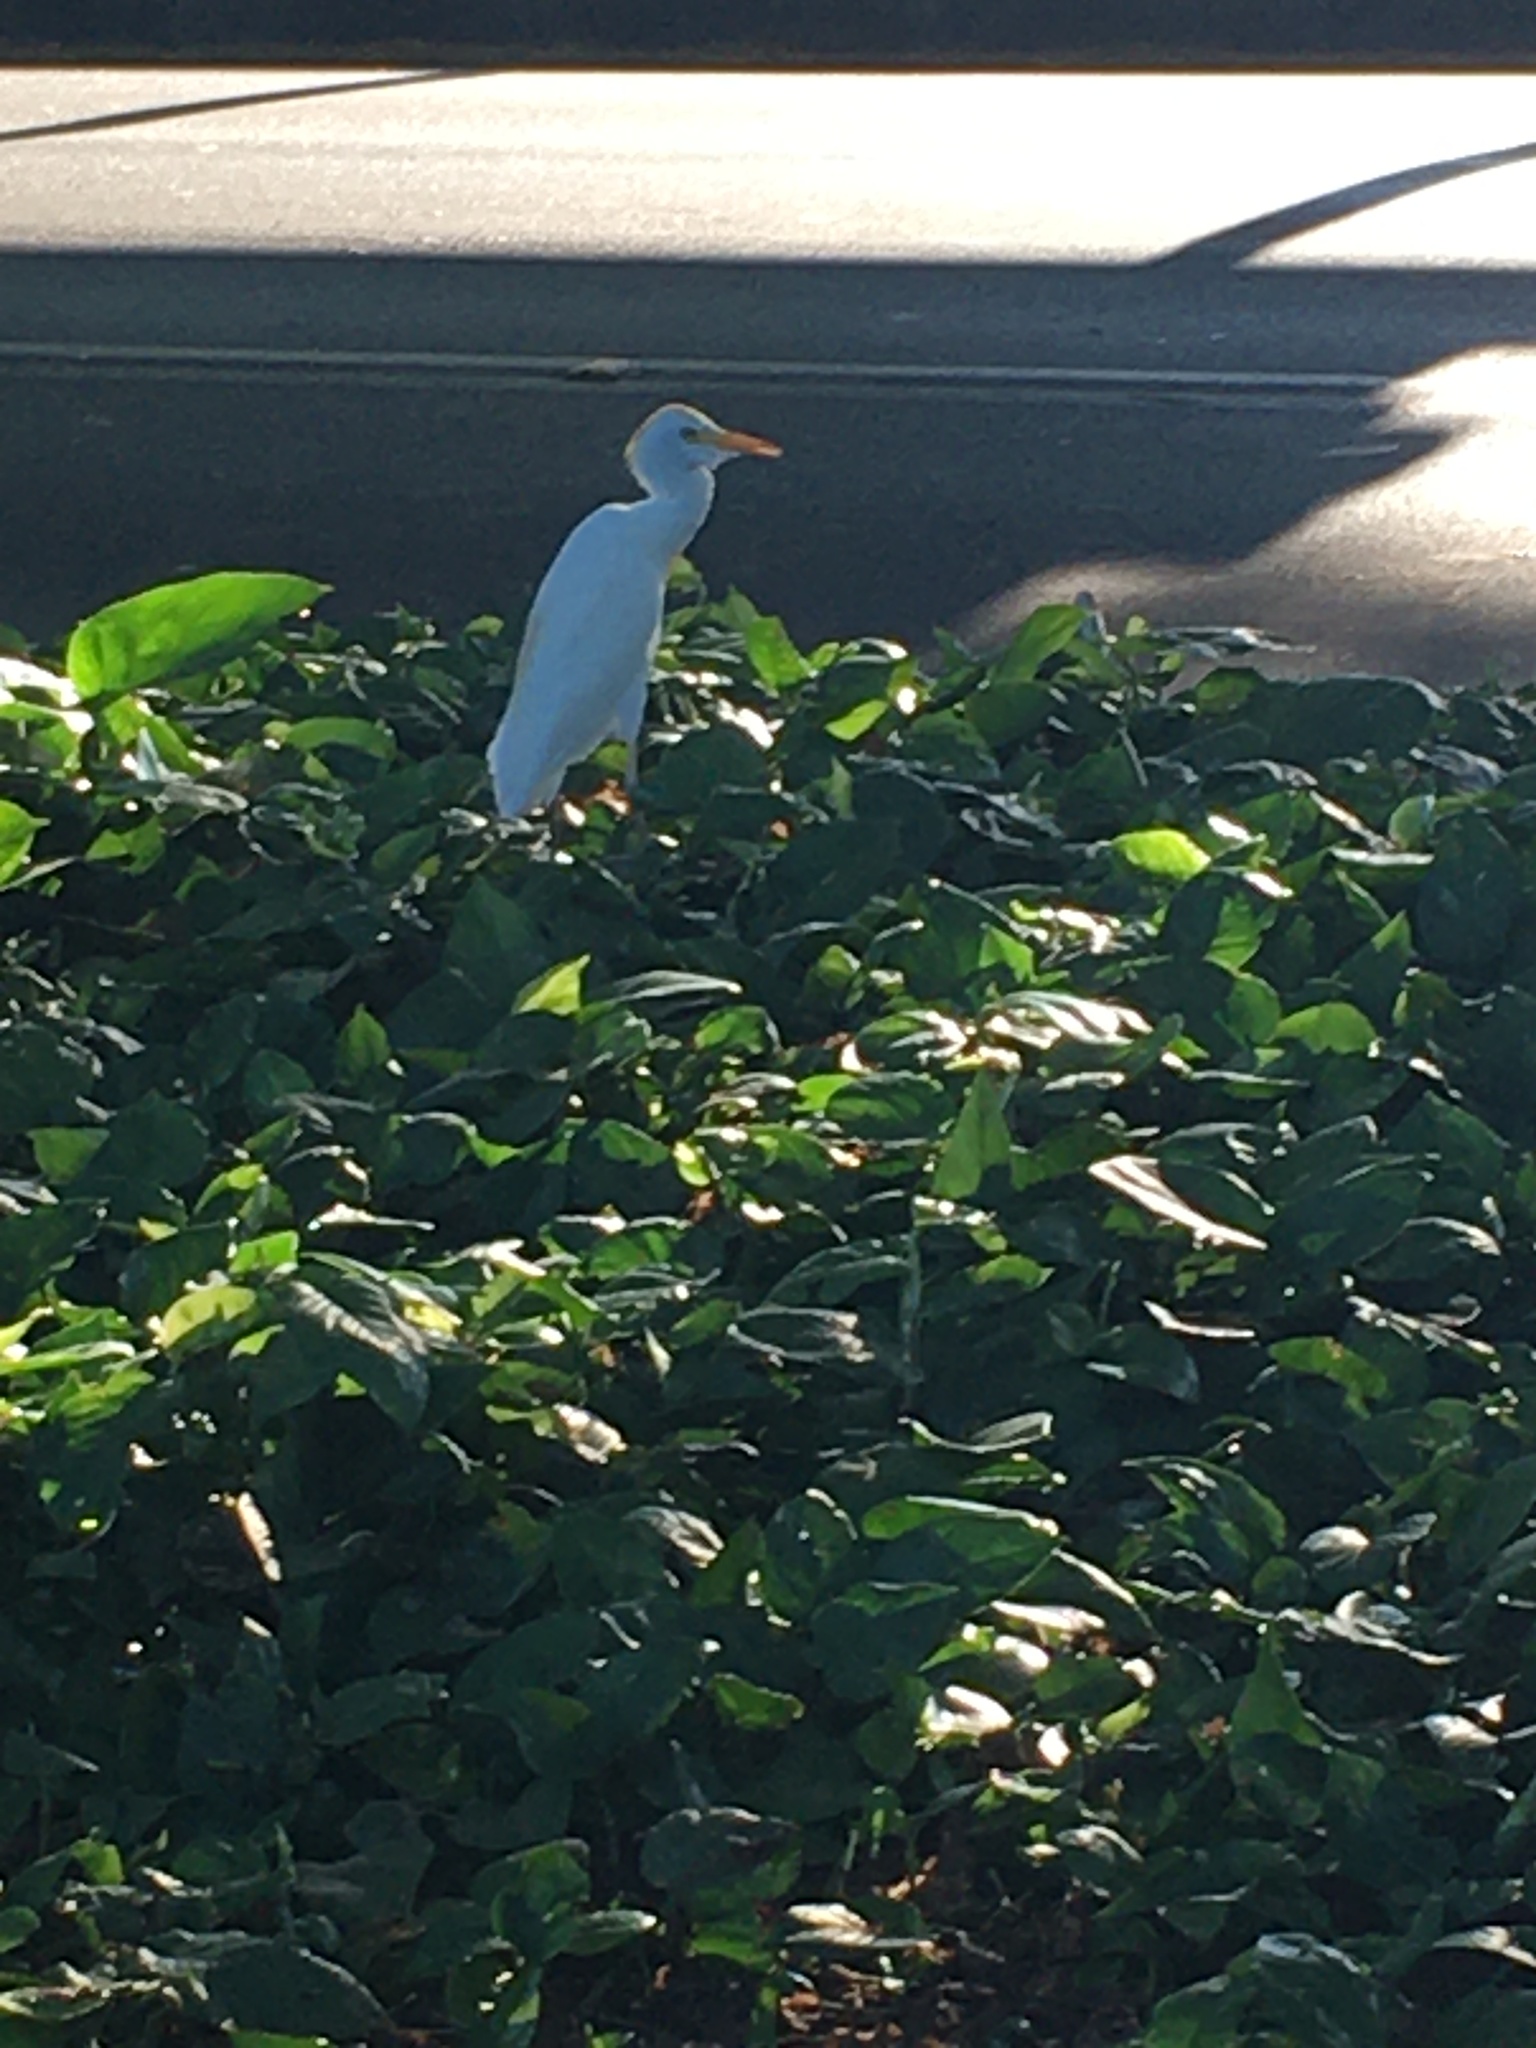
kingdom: Animalia
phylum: Chordata
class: Aves
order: Pelecaniformes
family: Ardeidae
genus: Bubulcus
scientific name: Bubulcus ibis
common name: Cattle egret
